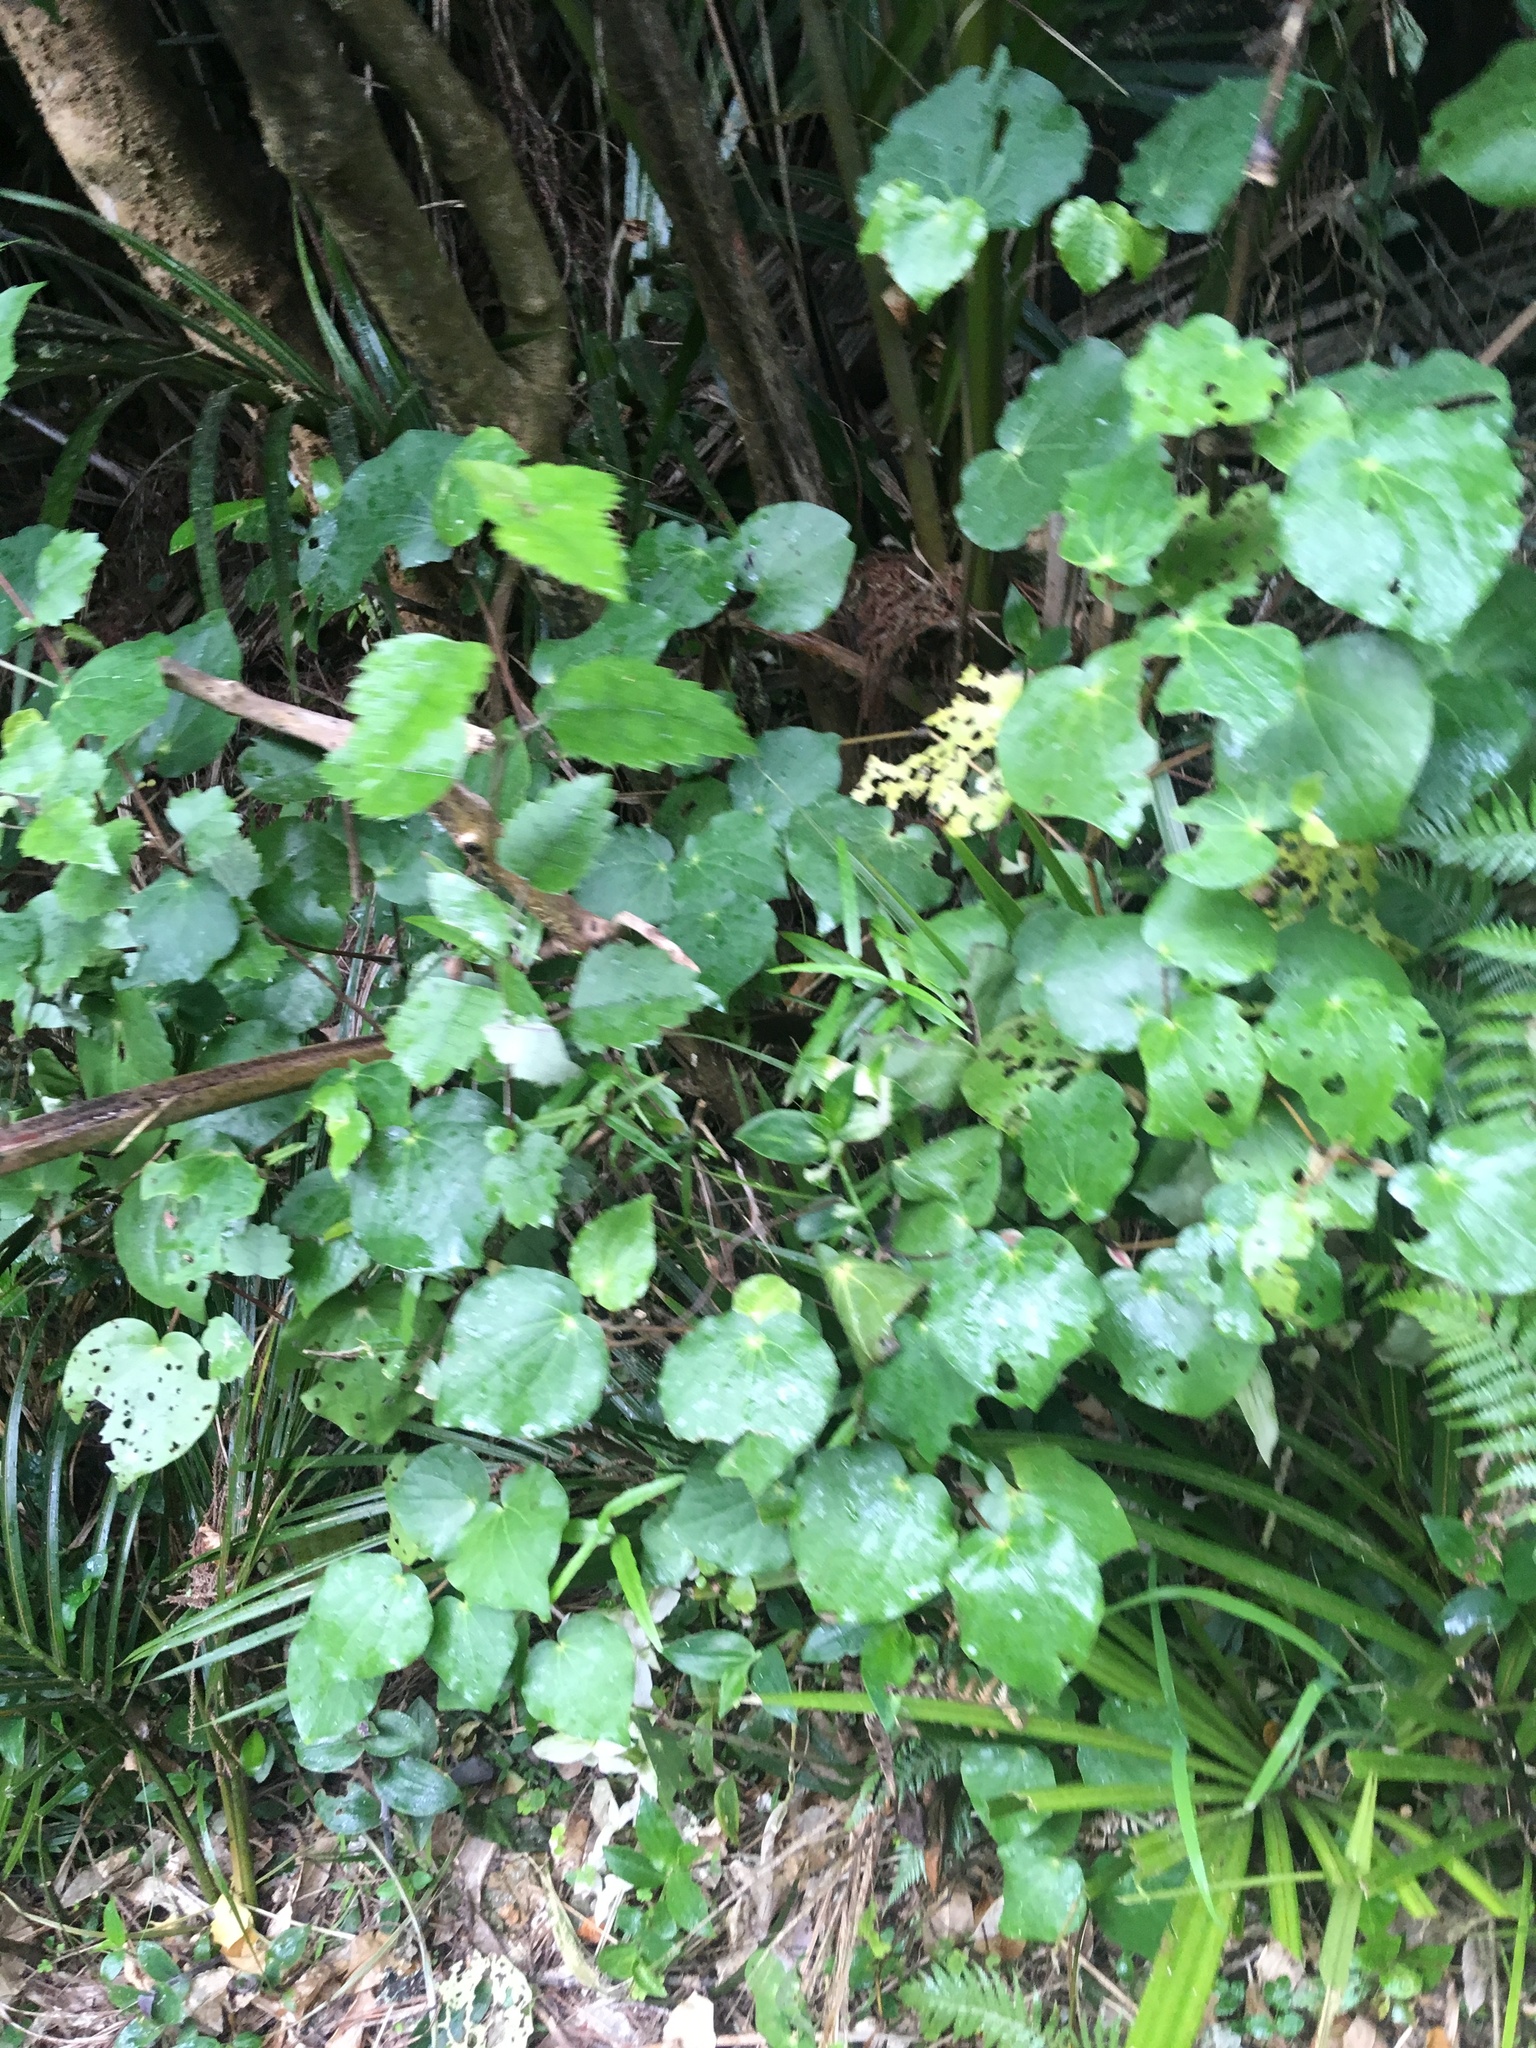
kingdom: Plantae
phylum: Tracheophyta
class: Magnoliopsida
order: Piperales
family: Piperaceae
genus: Macropiper
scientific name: Macropiper excelsum
